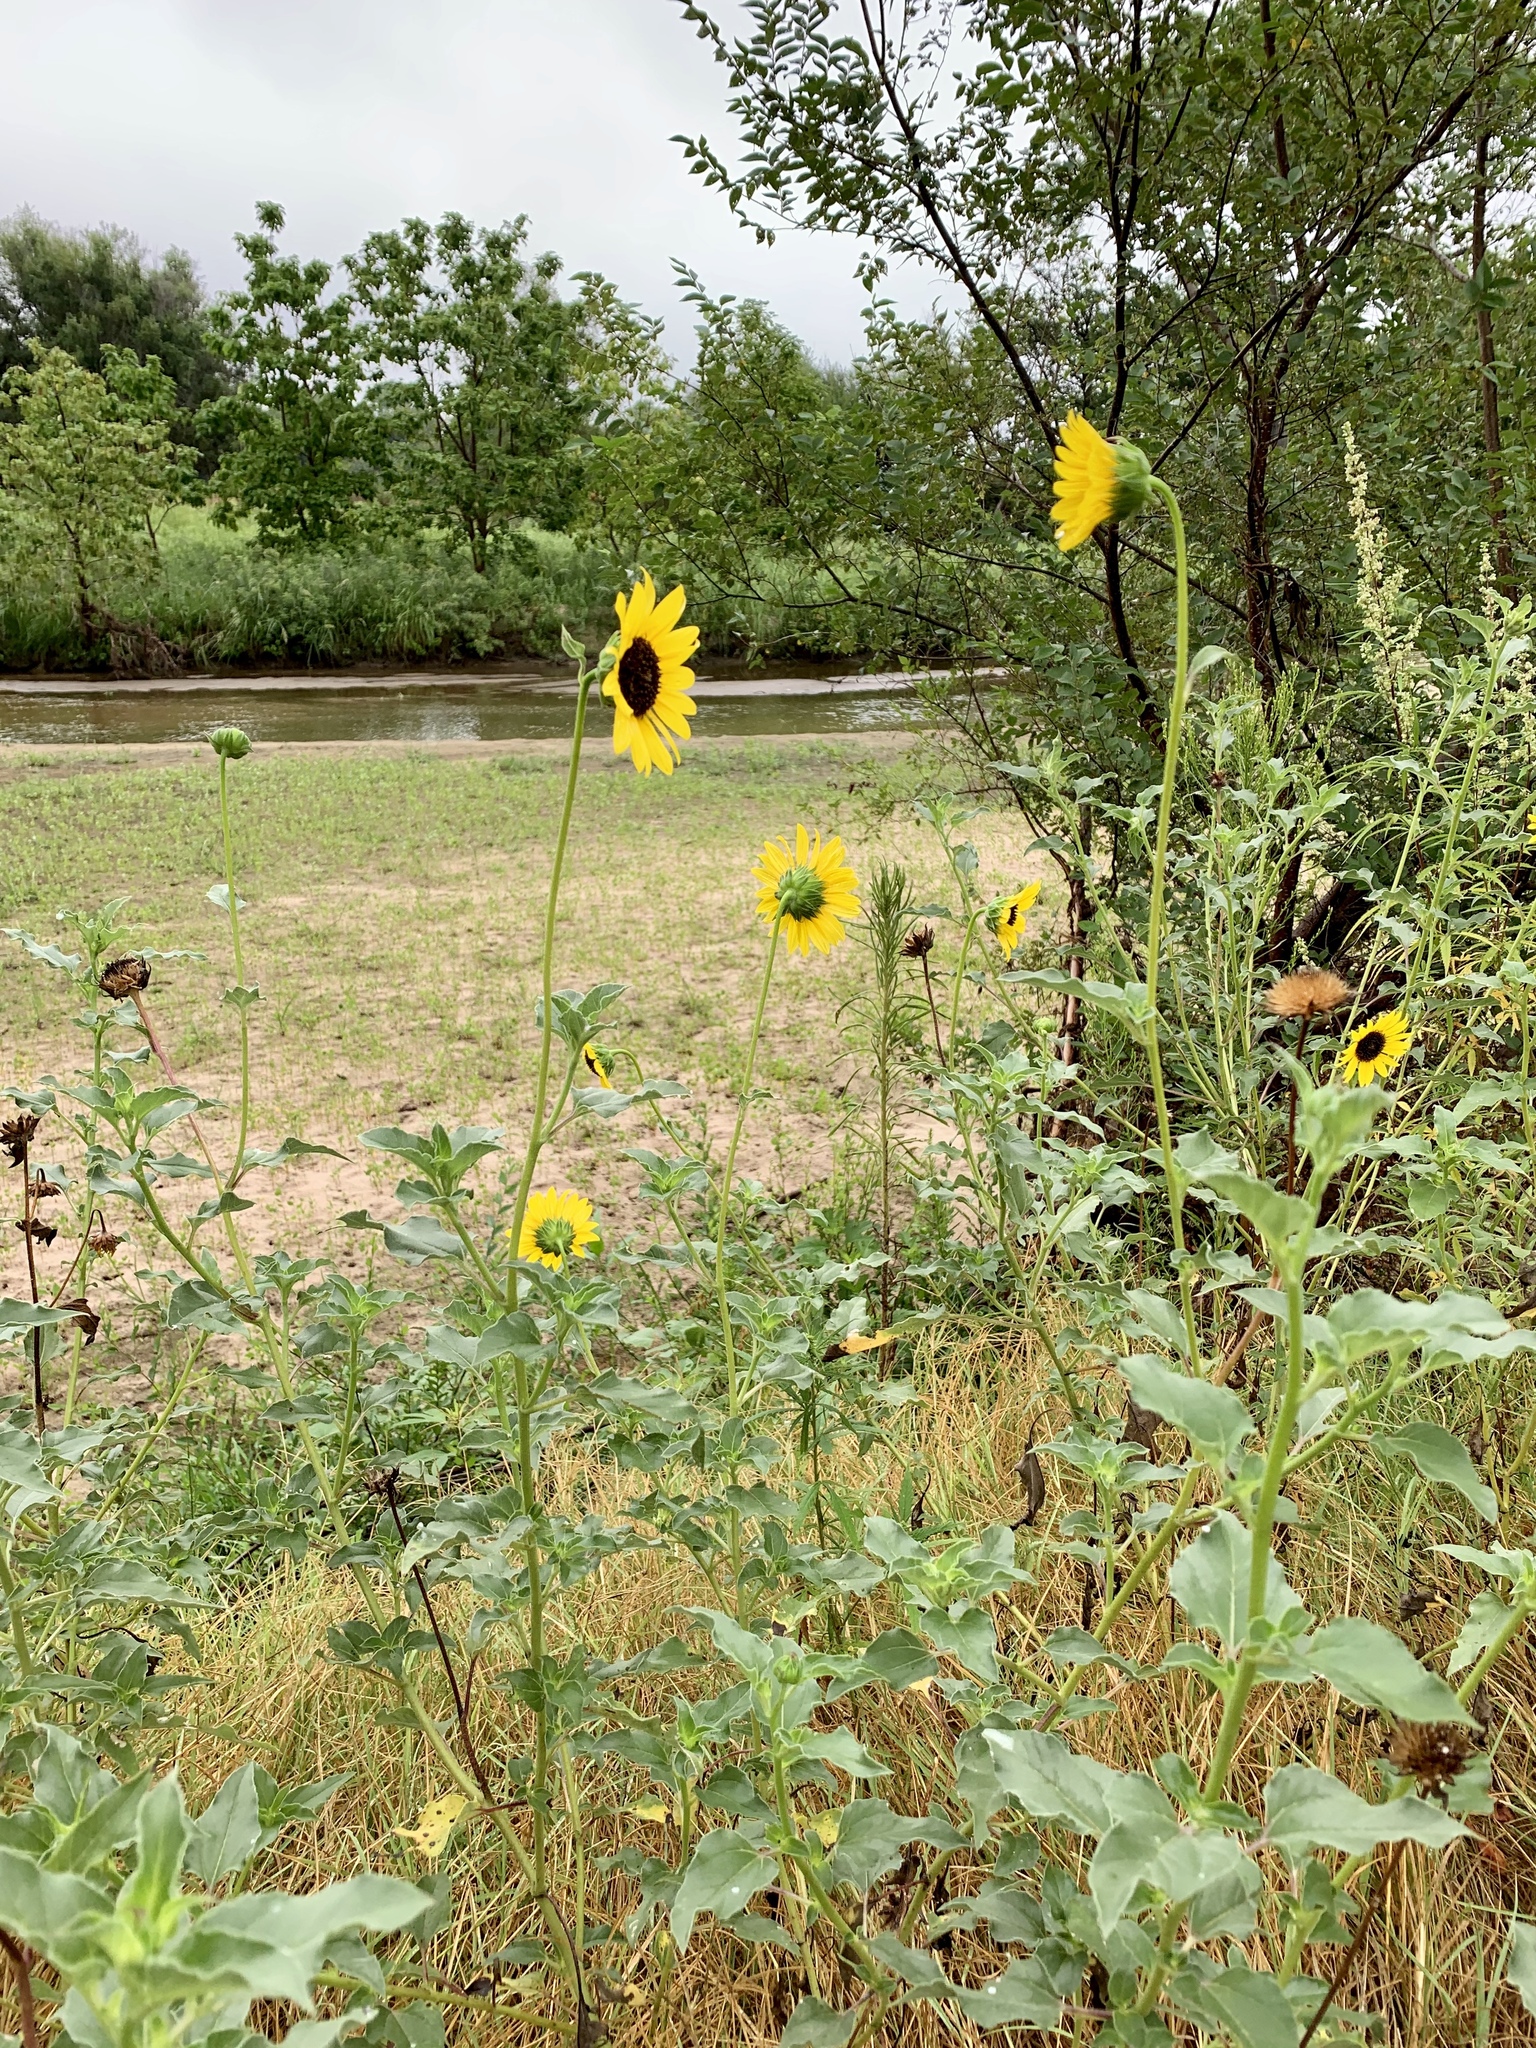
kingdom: Plantae
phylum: Tracheophyta
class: Magnoliopsida
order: Asterales
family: Asteraceae
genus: Helianthus
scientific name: Helianthus petiolaris
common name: Lesser sunflower
